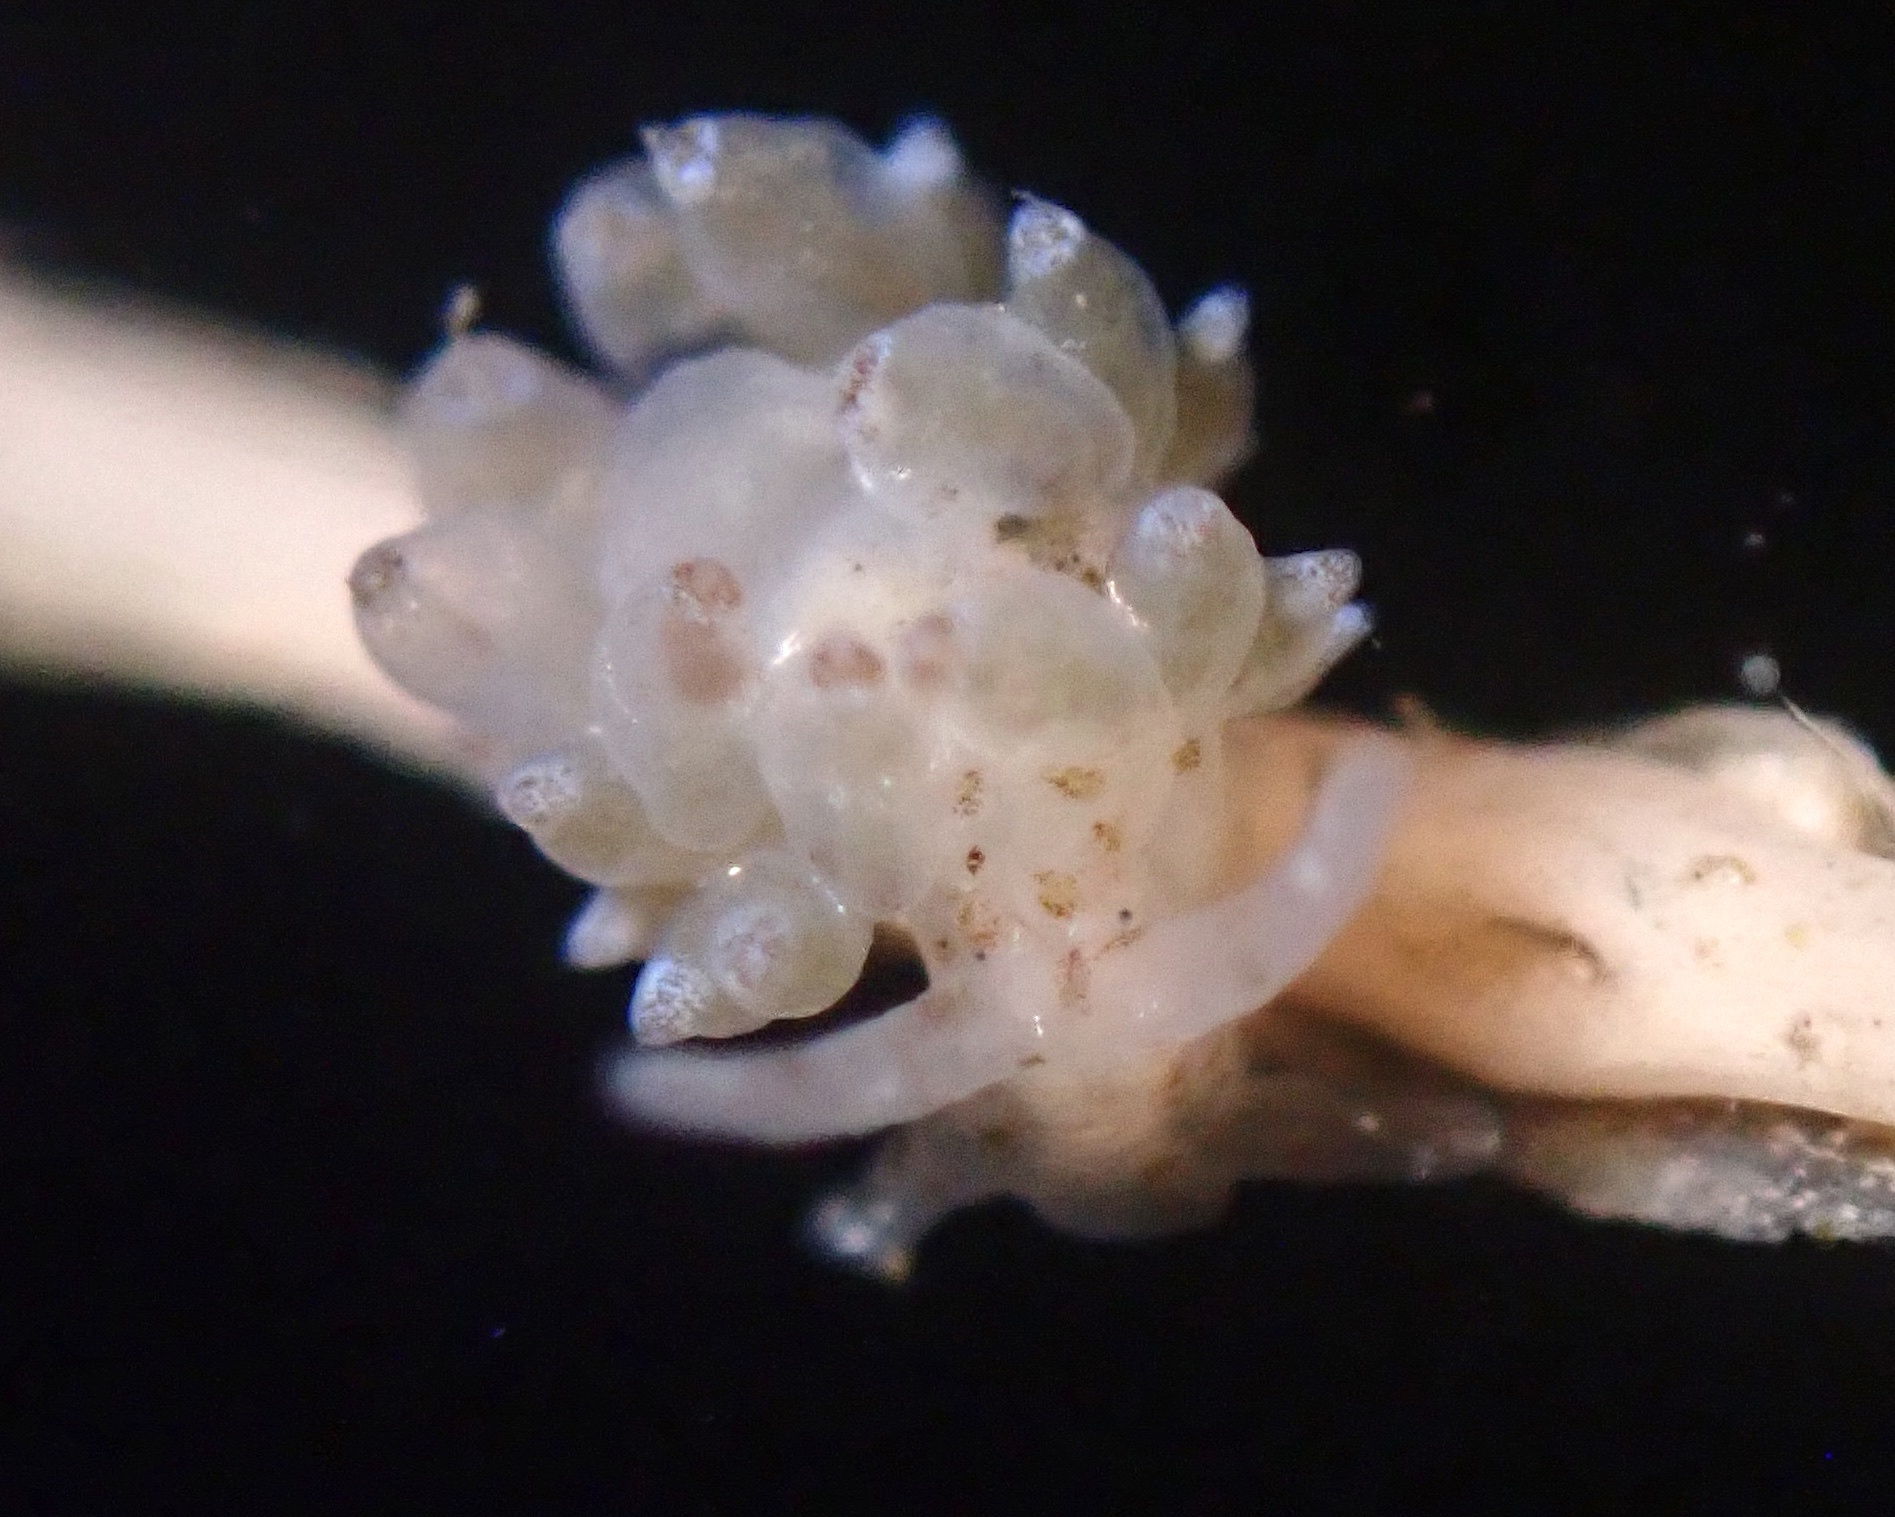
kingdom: Animalia
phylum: Mollusca
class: Gastropoda
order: Nudibranchia
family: Eubranchidae
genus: Leostyletus
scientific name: Leostyletus misakiensis
